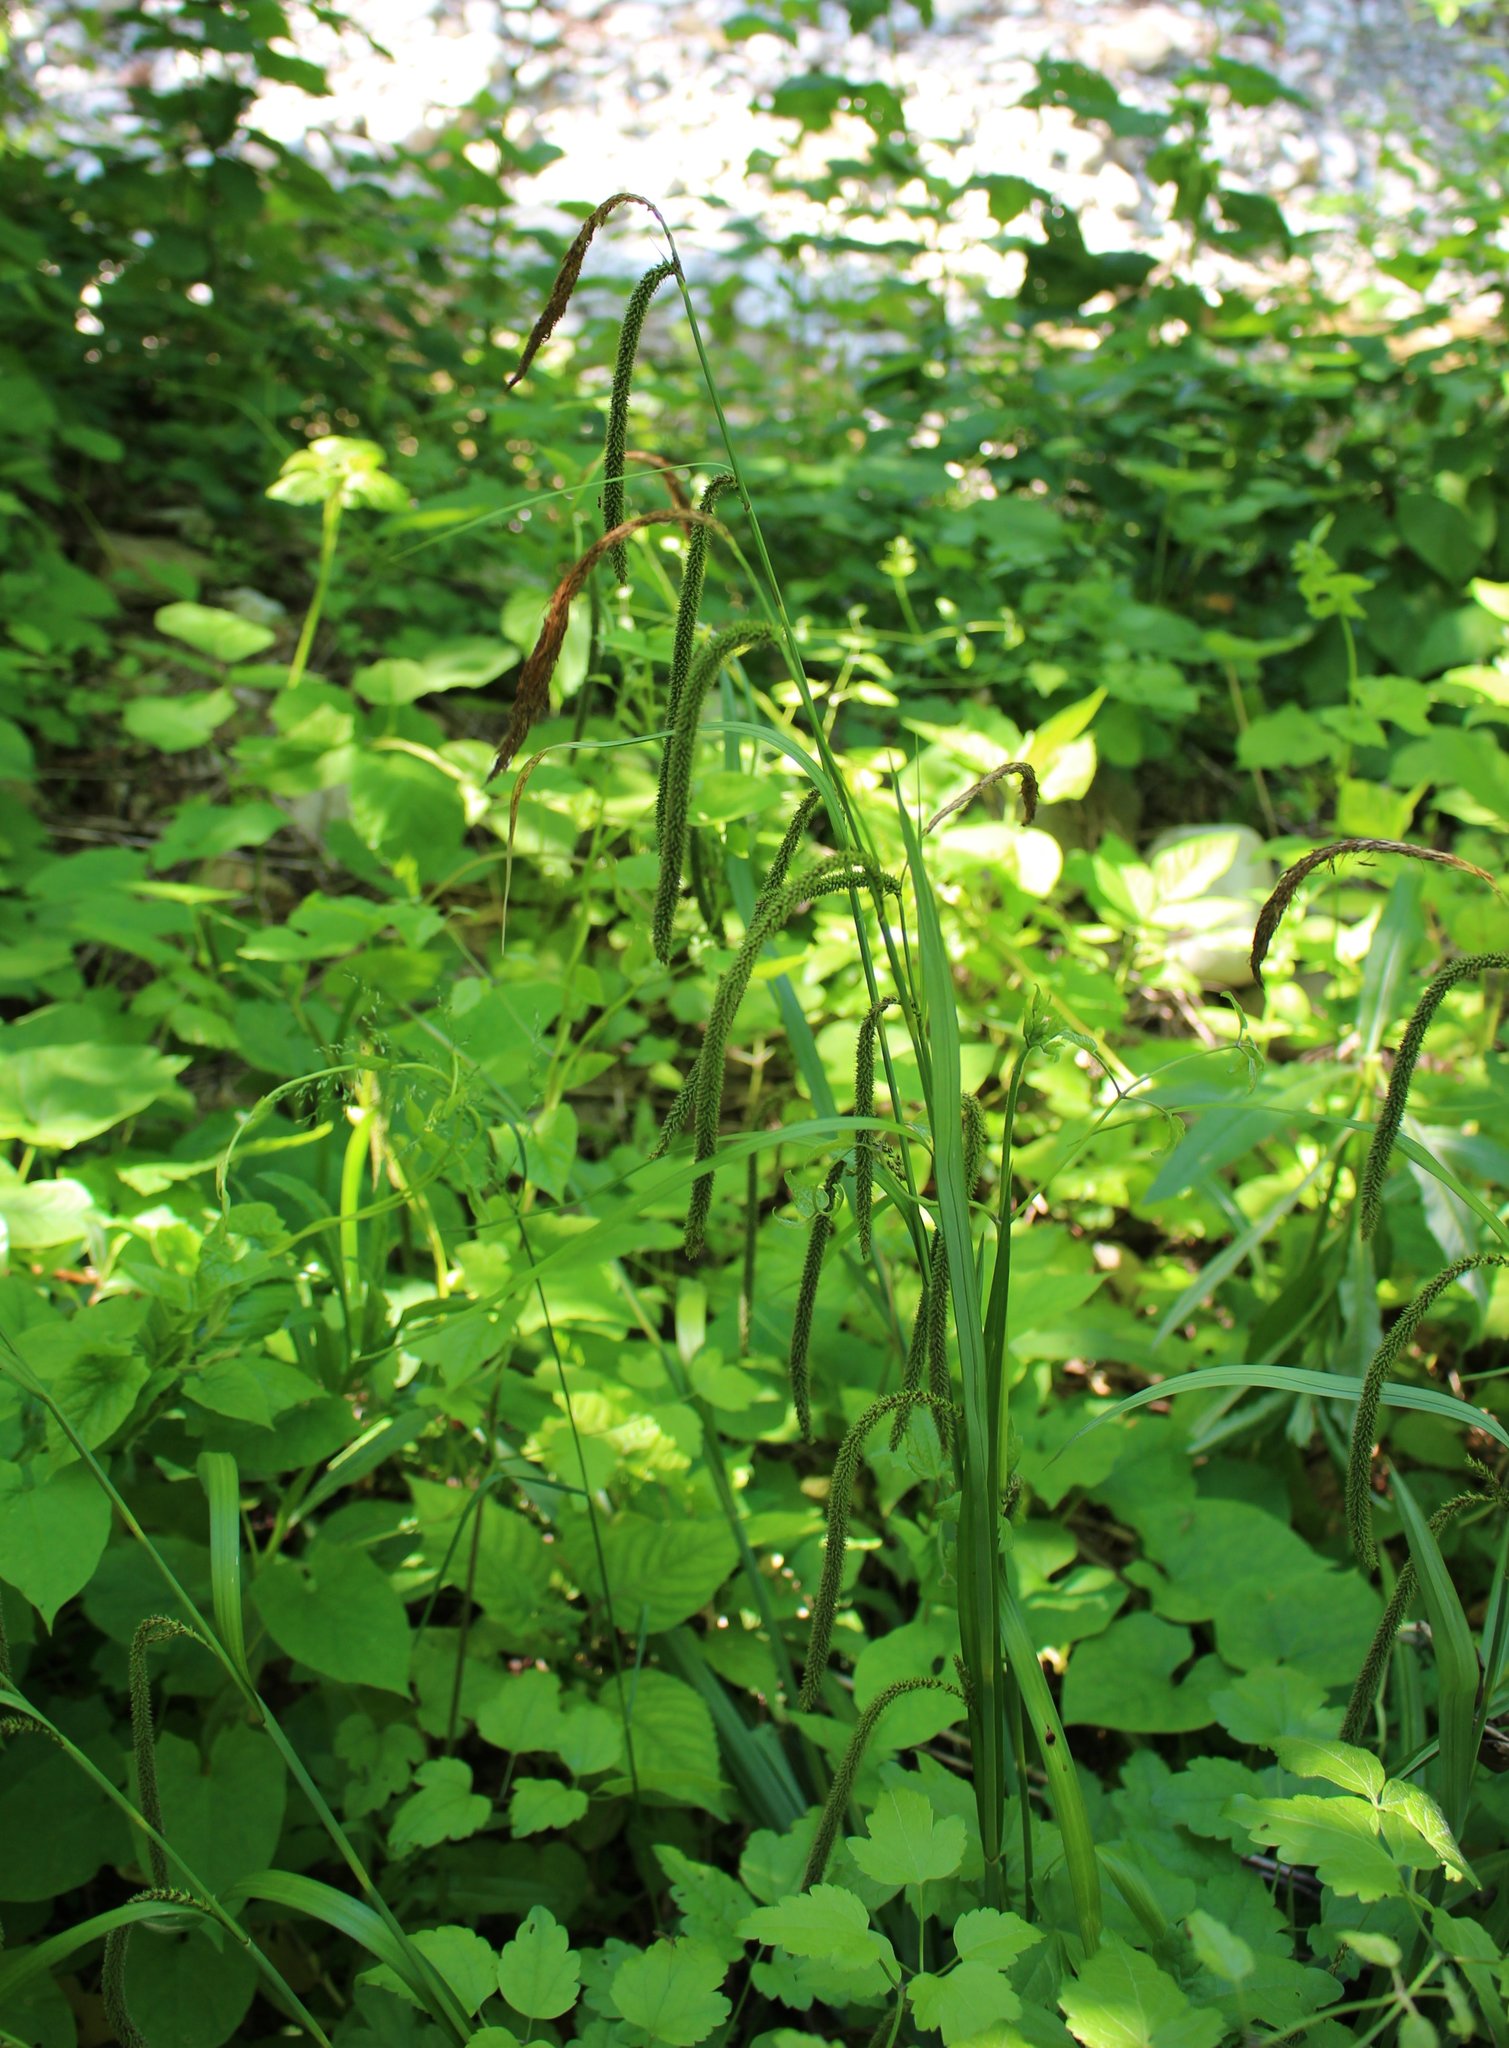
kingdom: Plantae
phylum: Tracheophyta
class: Liliopsida
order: Poales
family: Cyperaceae
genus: Carex
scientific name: Carex pendula
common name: Pendulous sedge
